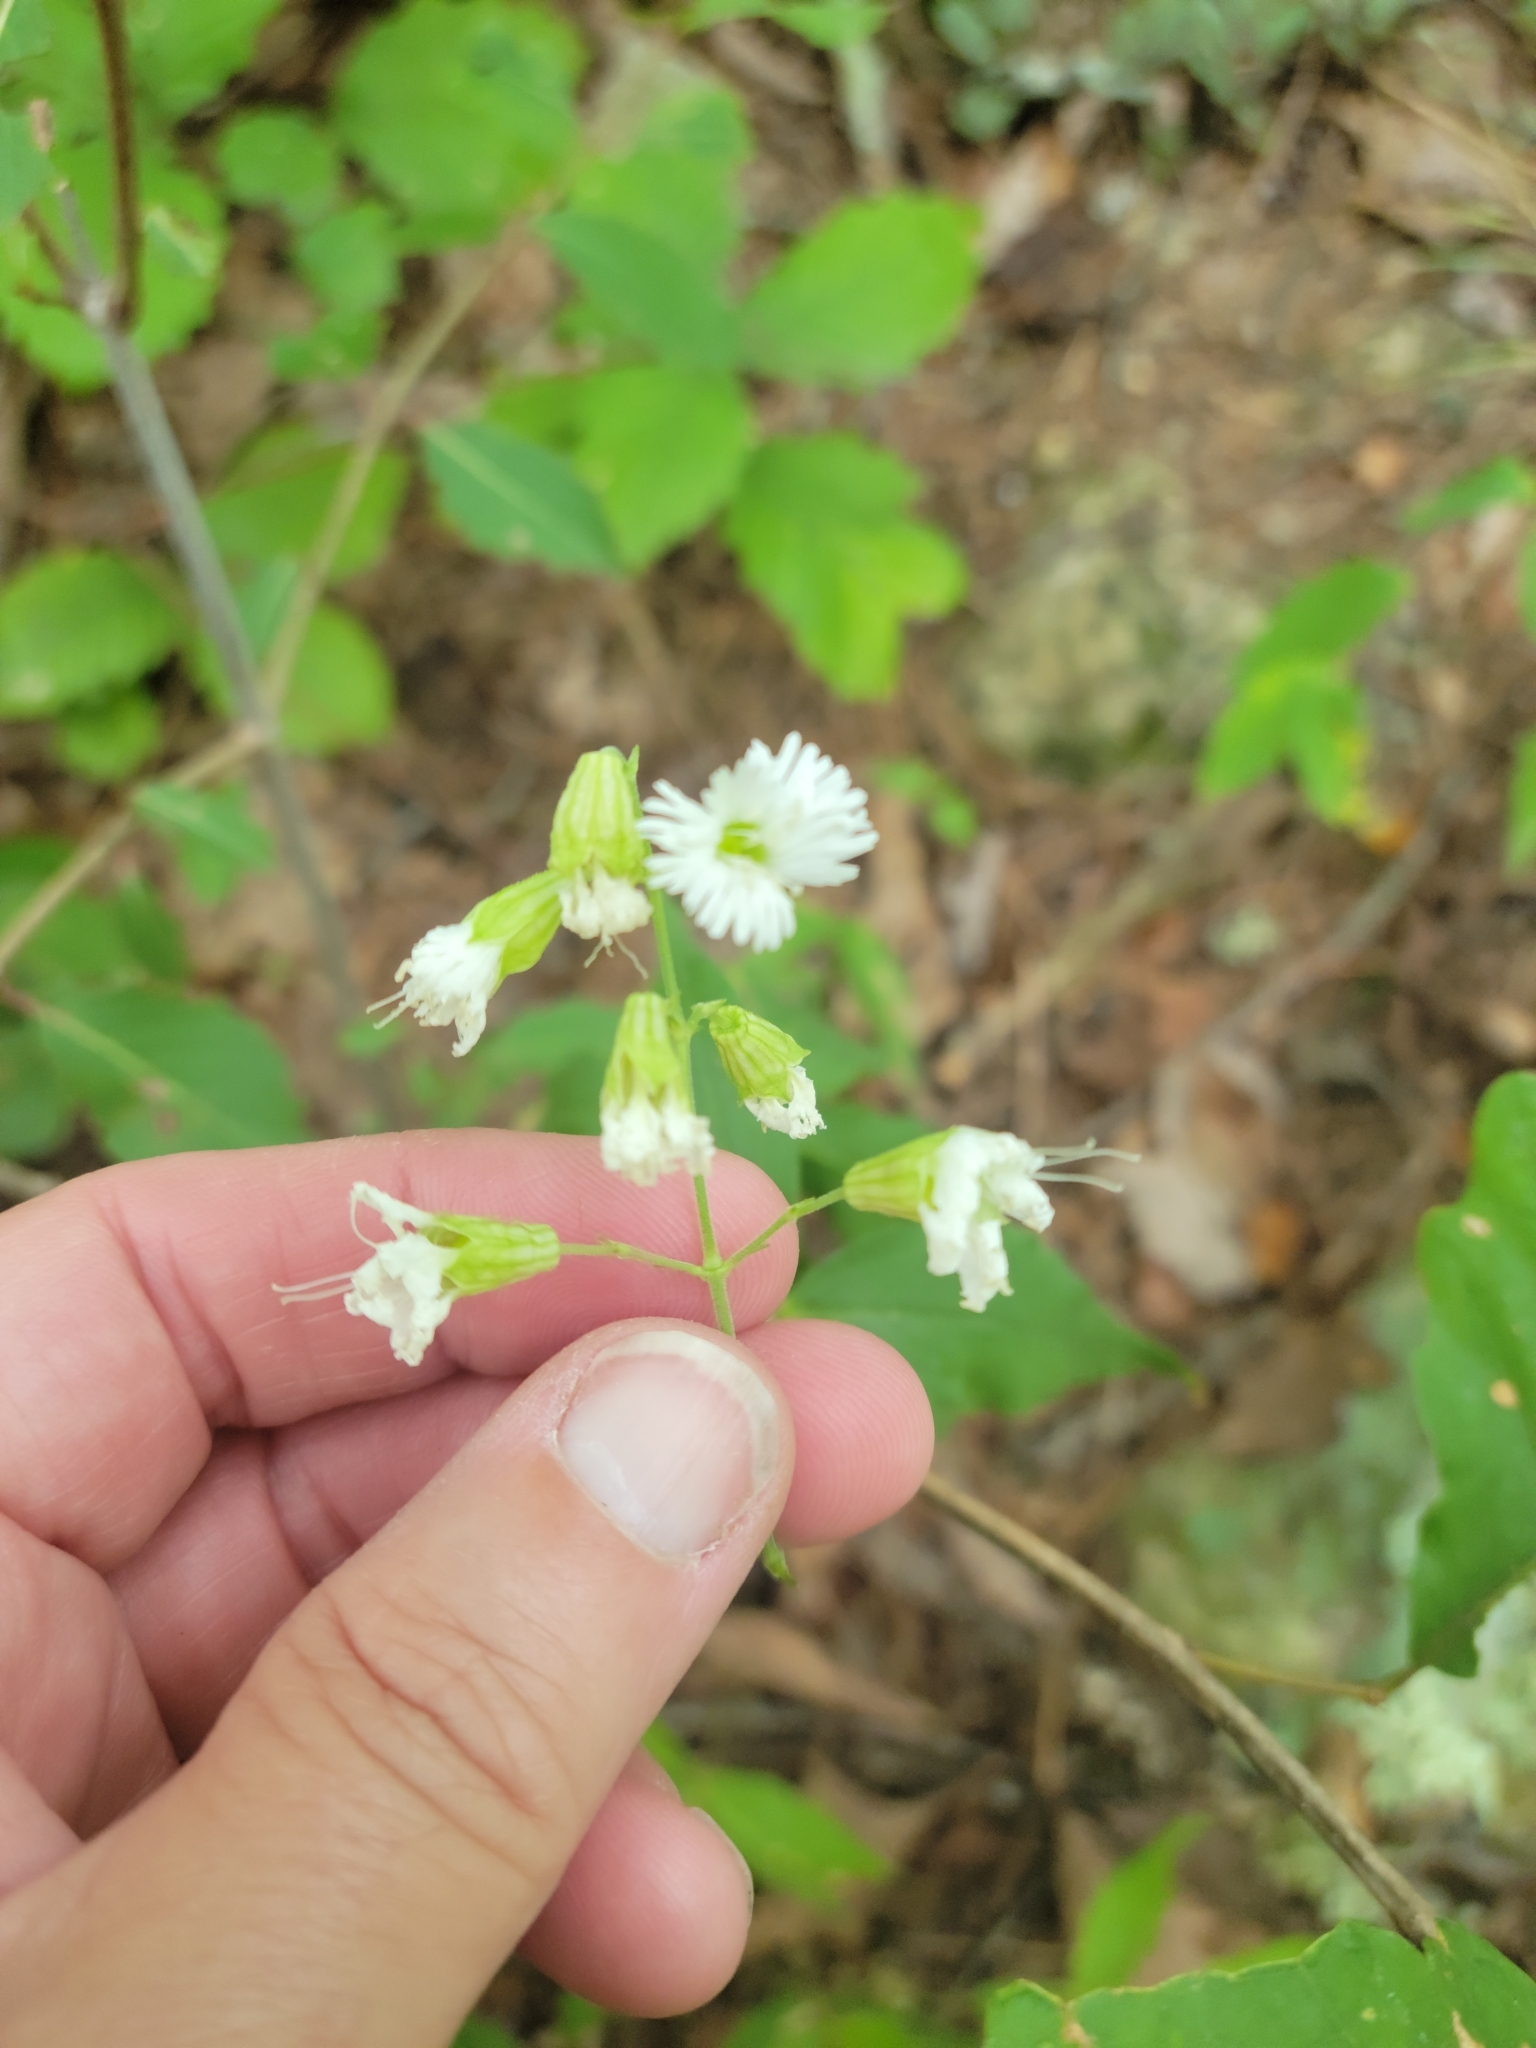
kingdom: Plantae
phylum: Tracheophyta
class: Magnoliopsida
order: Caryophyllales
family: Caryophyllaceae
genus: Silene
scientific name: Silene stellata
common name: Starry campion
